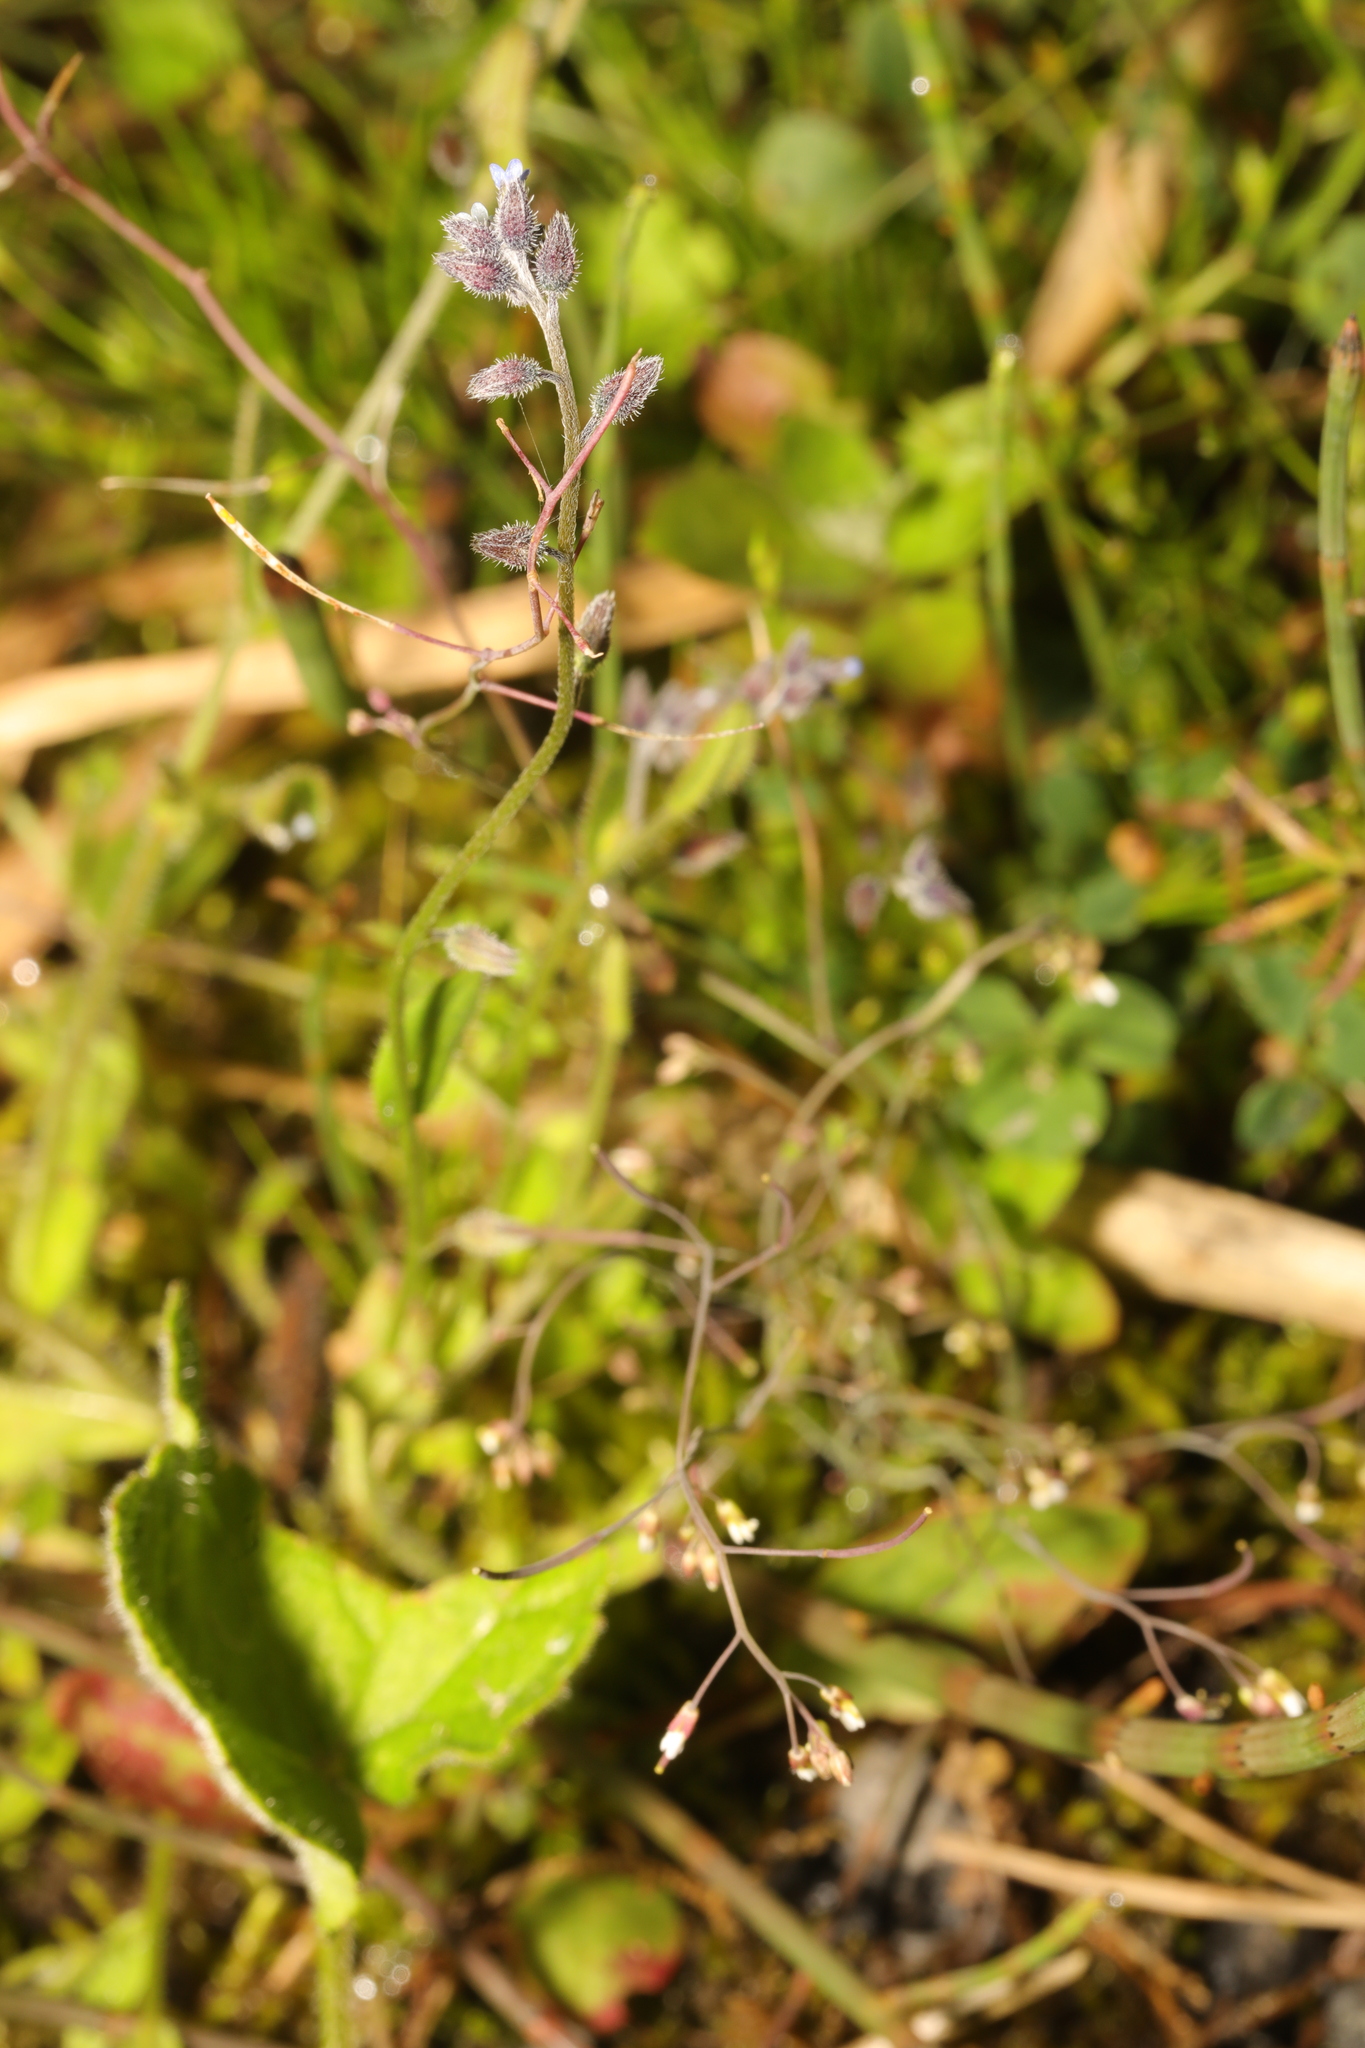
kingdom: Plantae
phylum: Tracheophyta
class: Magnoliopsida
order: Brassicales
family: Brassicaceae
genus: Arabidopsis
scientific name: Arabidopsis thaliana
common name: Thale cress
